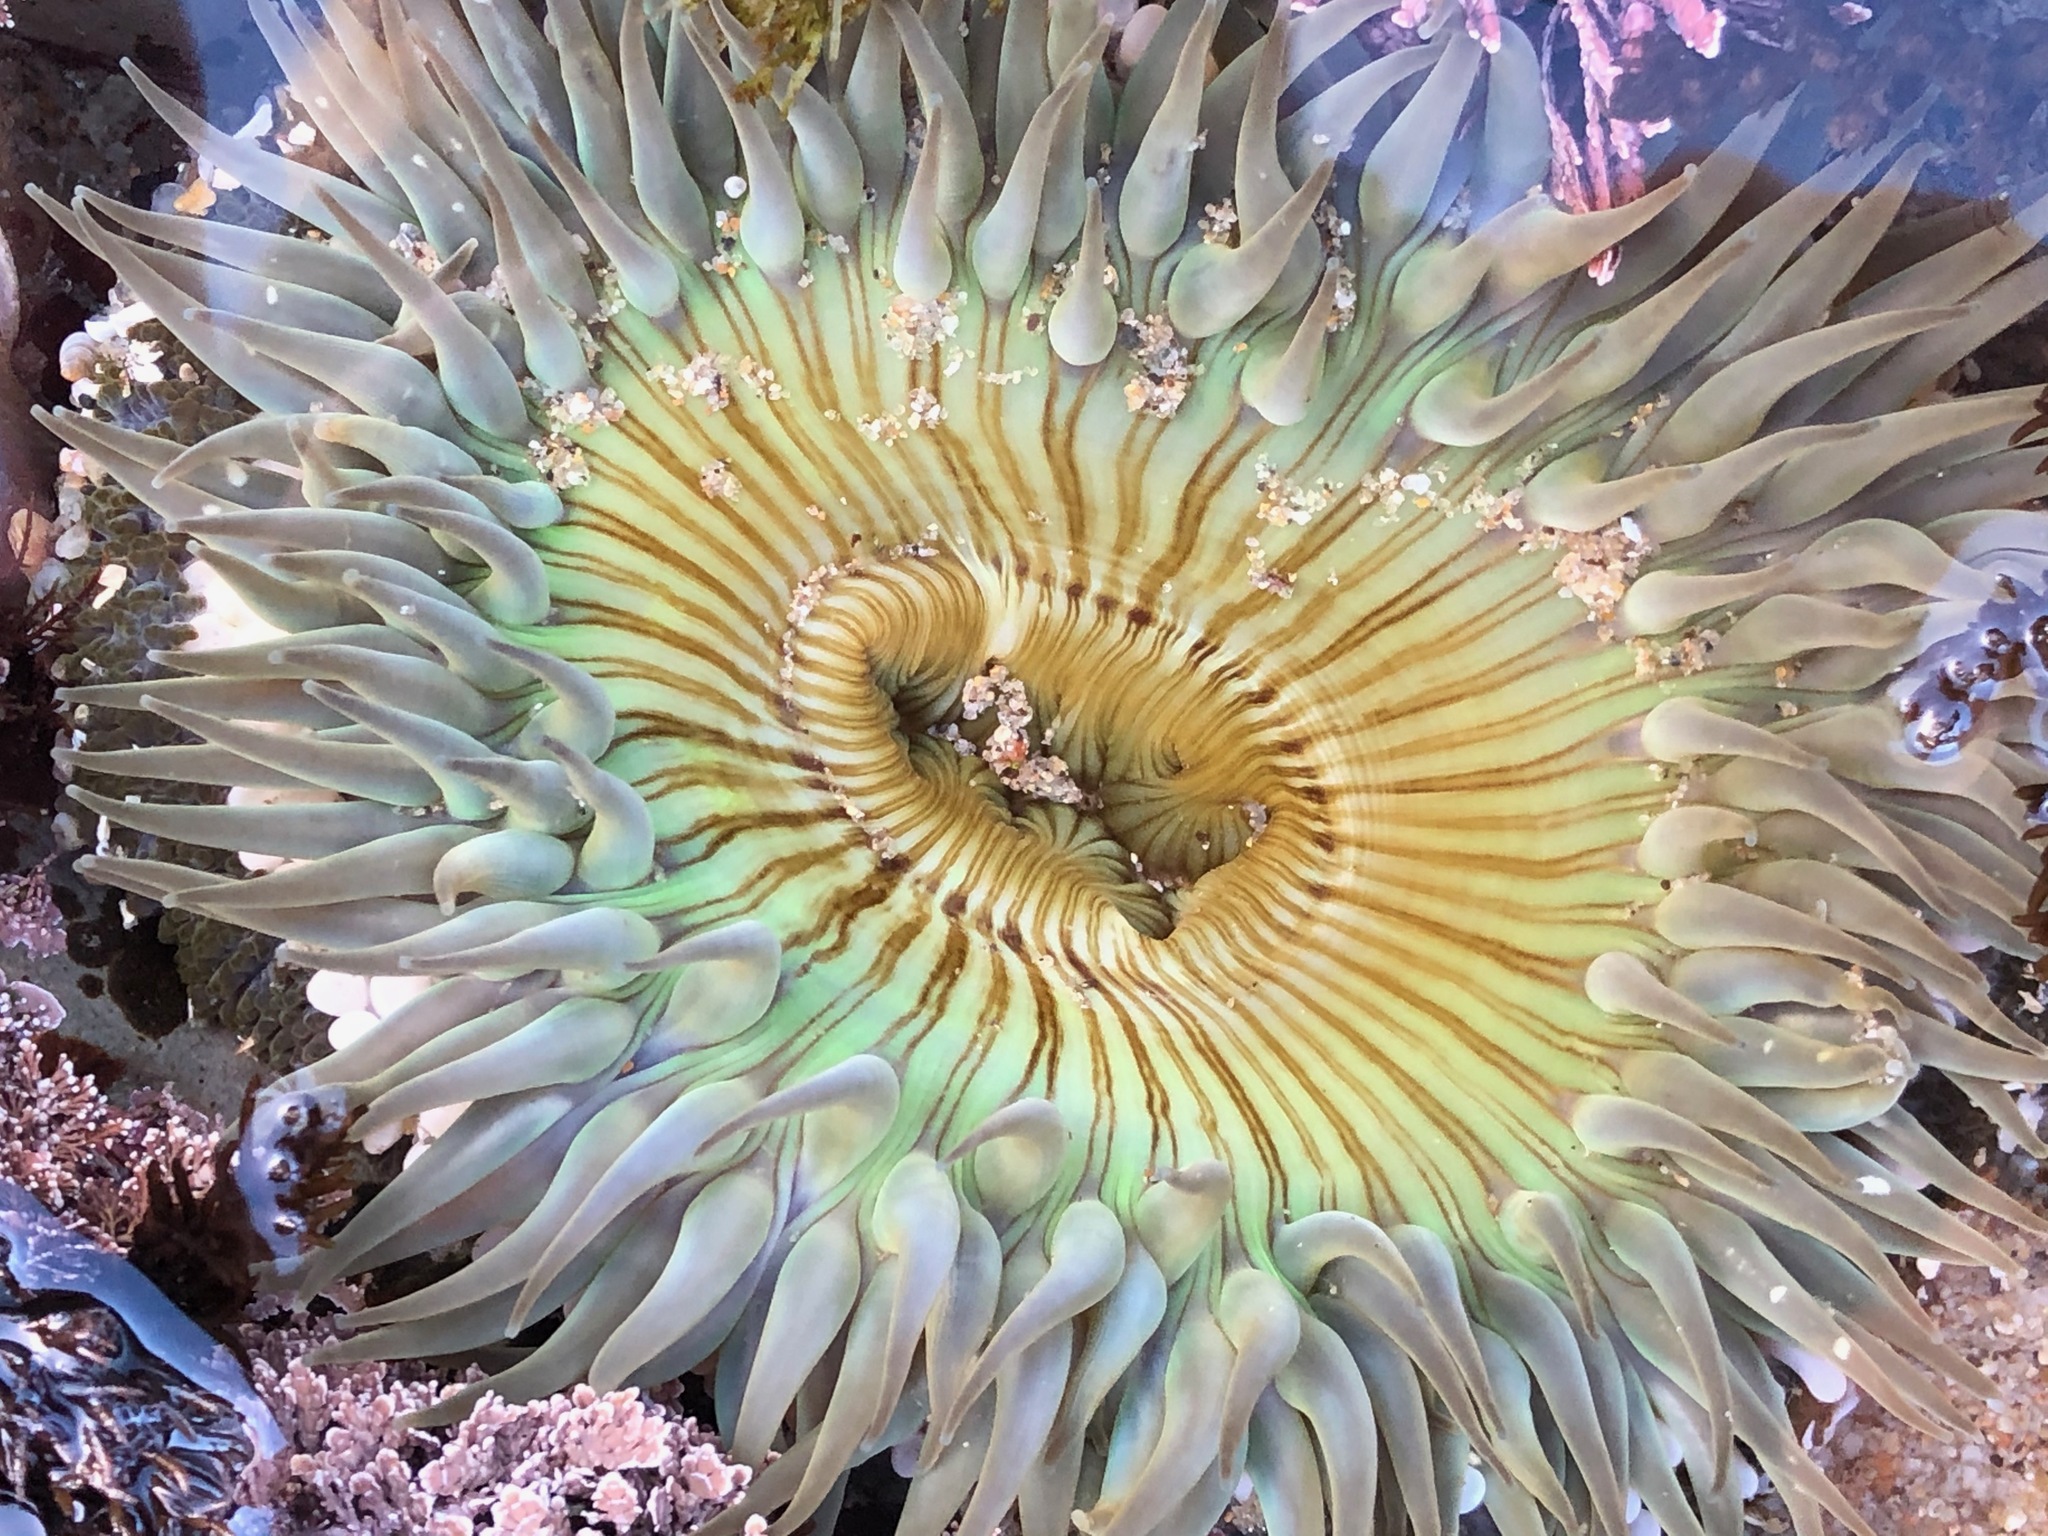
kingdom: Animalia
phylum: Cnidaria
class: Anthozoa
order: Actiniaria
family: Actiniidae
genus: Anthopleura
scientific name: Anthopleura sola
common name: Sun anemone
